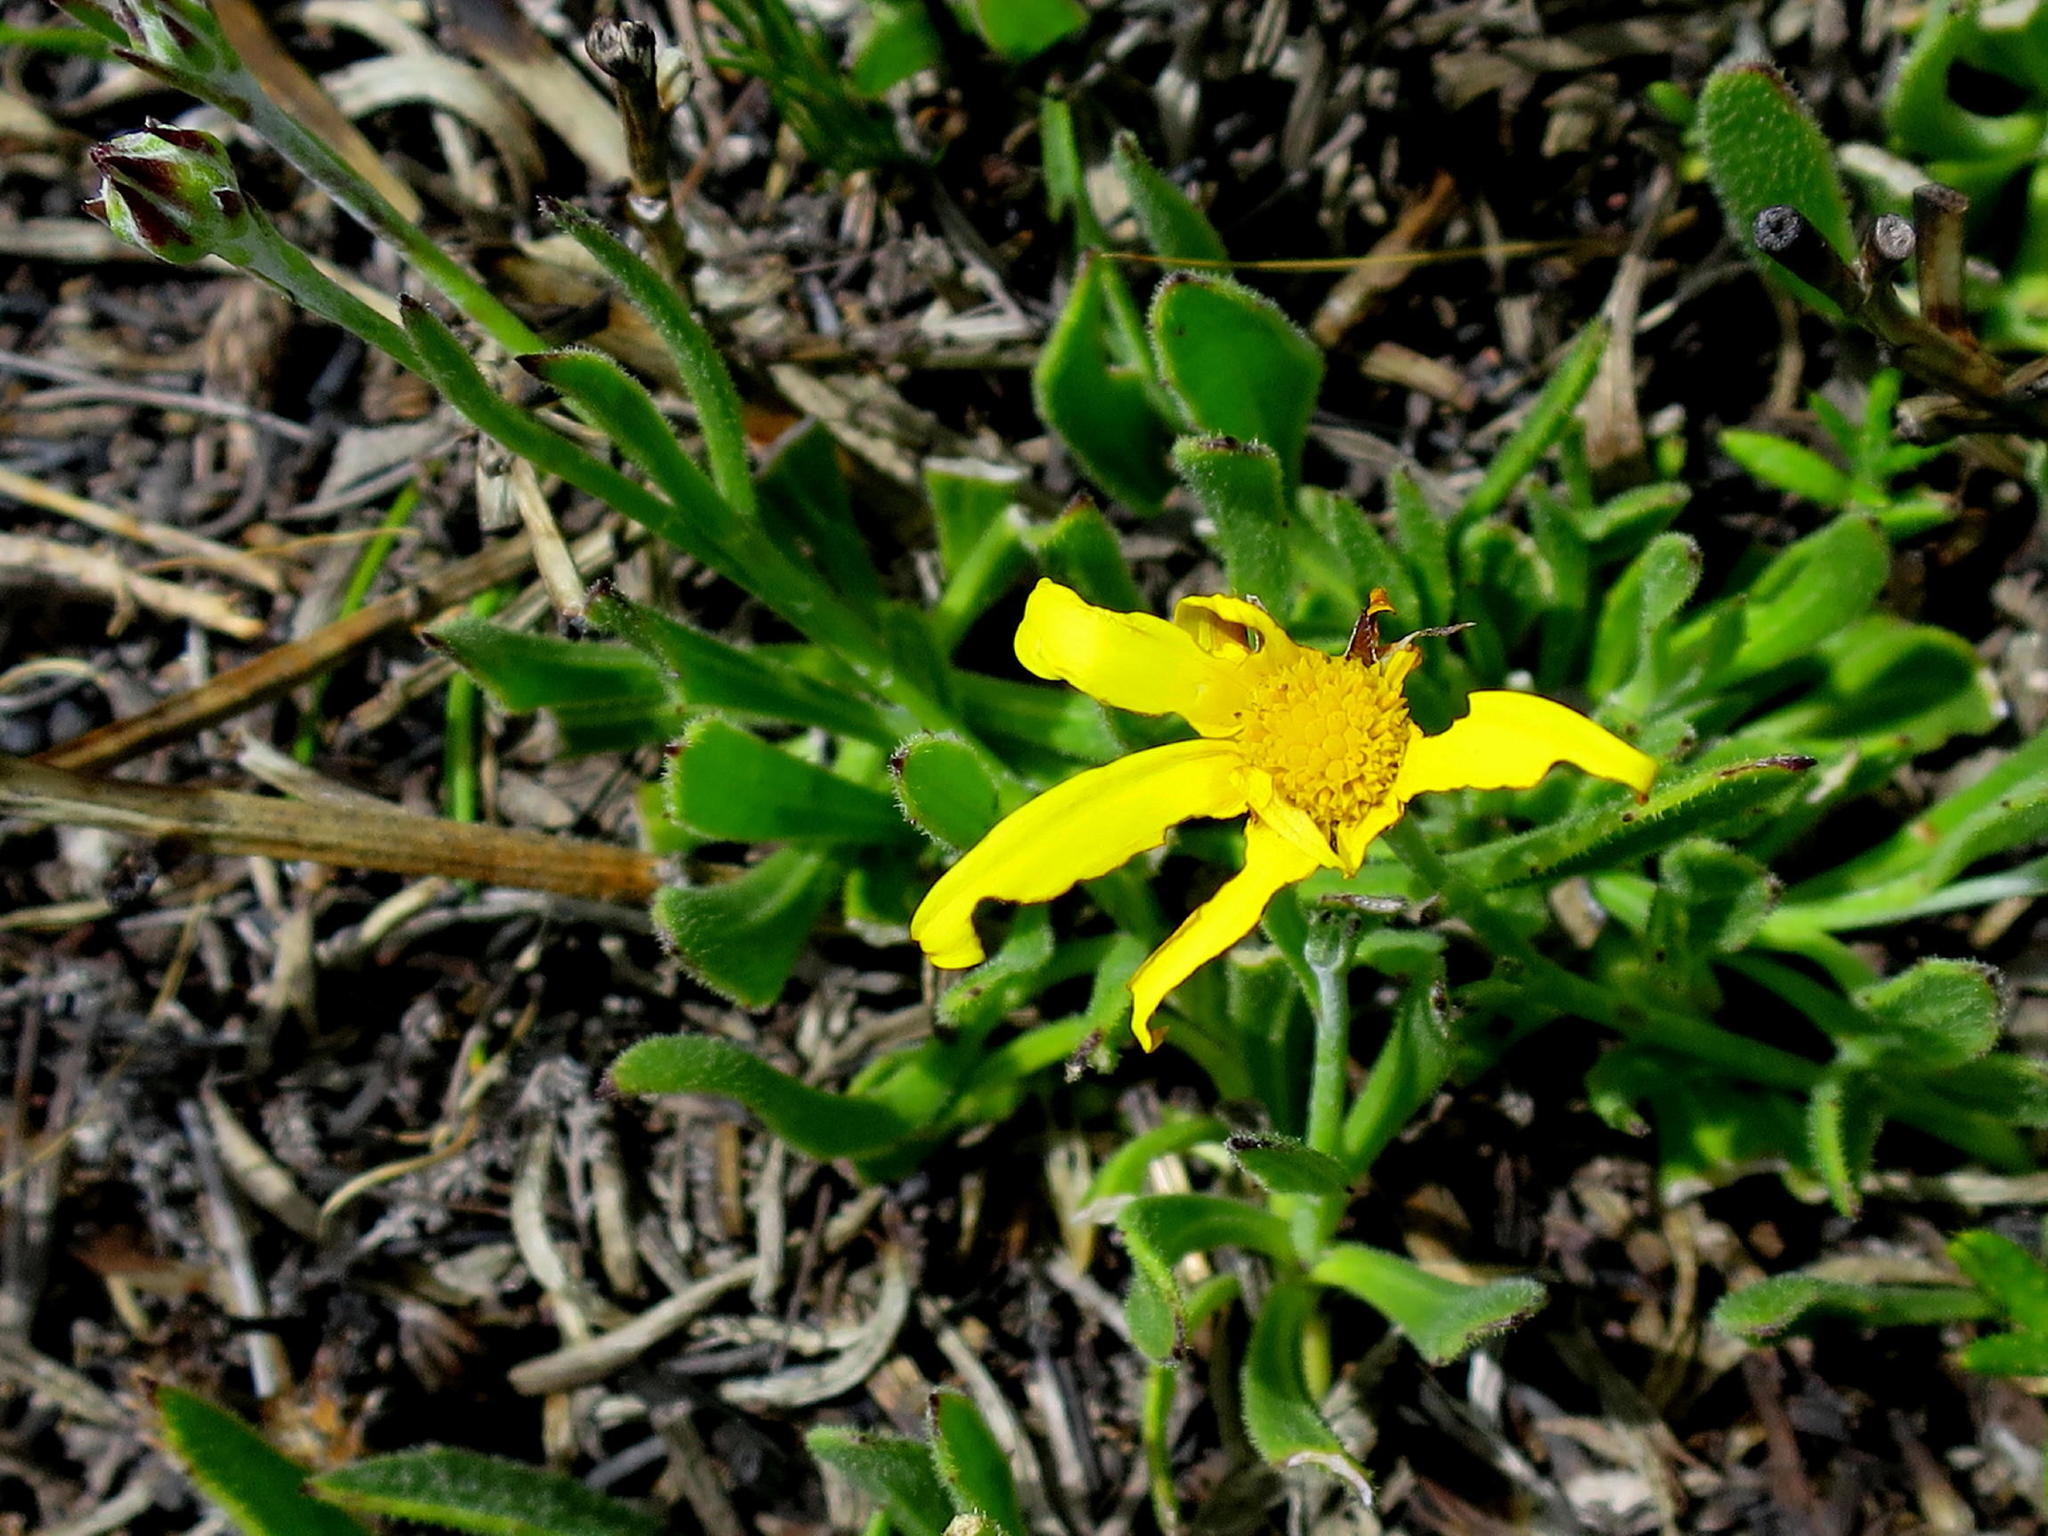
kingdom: Plantae
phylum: Tracheophyta
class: Magnoliopsida
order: Asterales
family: Asteraceae
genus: Osteospermum
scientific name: Osteospermum asperulum
